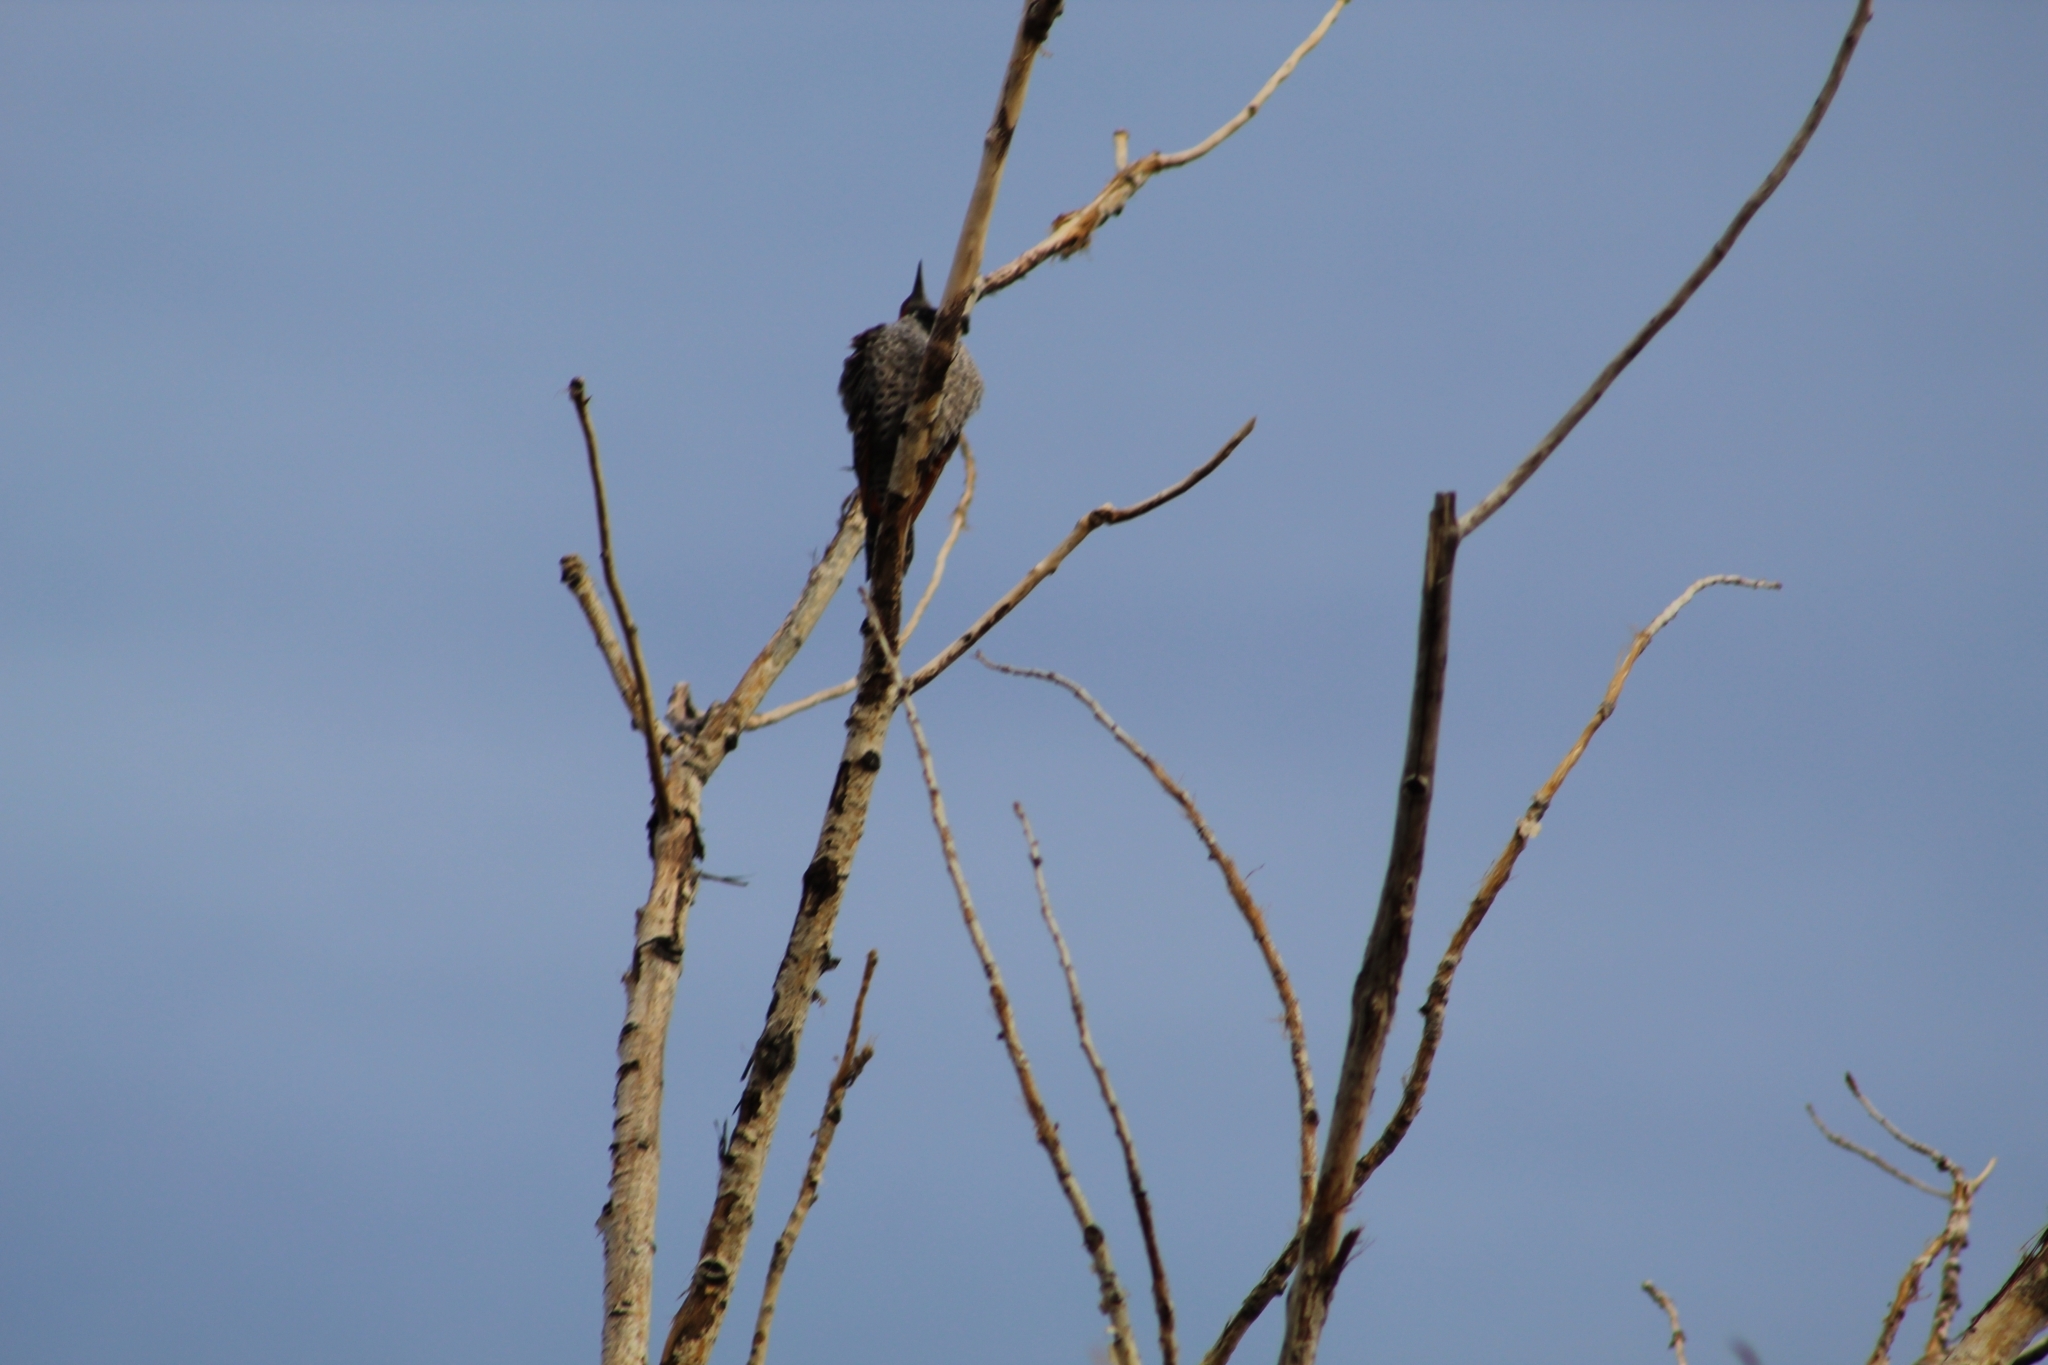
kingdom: Animalia
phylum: Chordata
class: Aves
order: Piciformes
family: Picidae
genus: Colaptes
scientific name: Colaptes auratus
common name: Northern flicker
